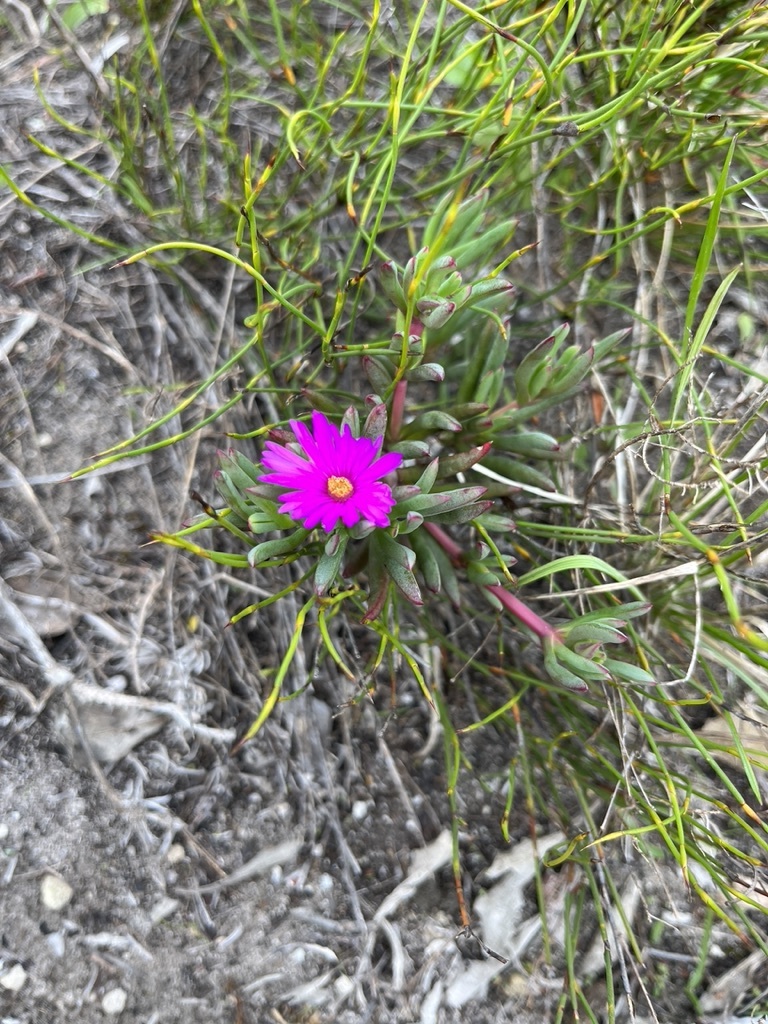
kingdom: Plantae
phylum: Tracheophyta
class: Magnoliopsida
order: Caryophyllales
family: Aizoaceae
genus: Lampranthus
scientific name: Lampranthus ceriseus
